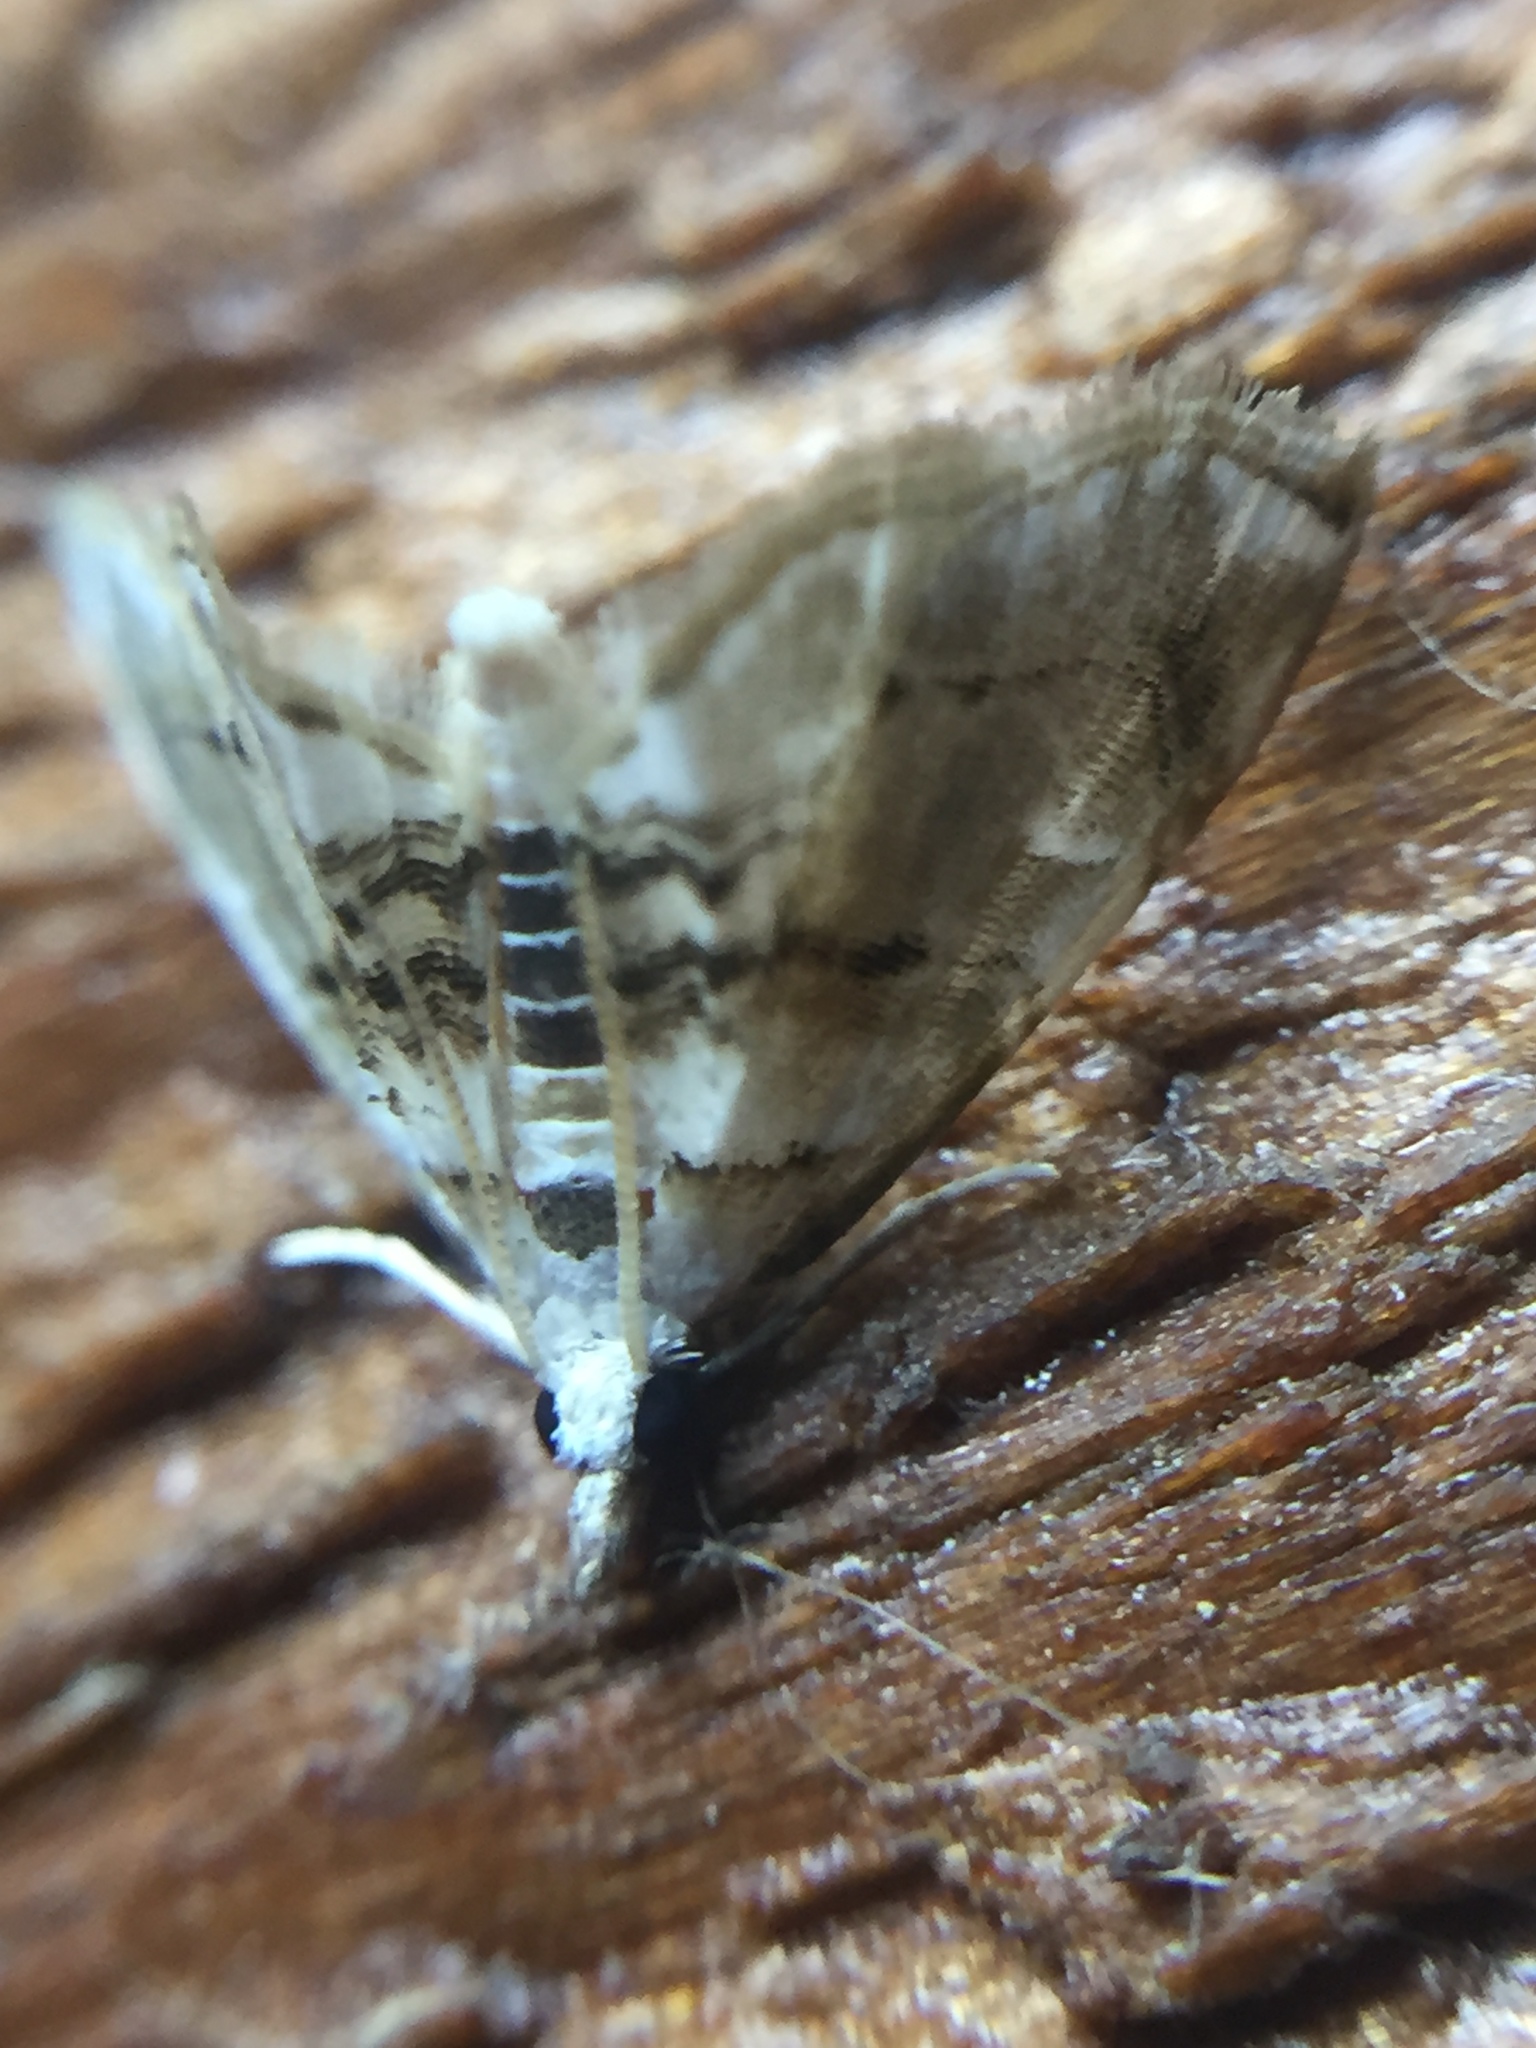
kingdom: Animalia
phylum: Arthropoda
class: Insecta
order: Lepidoptera
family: Crambidae
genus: Trichophysetis
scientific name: Trichophysetis
